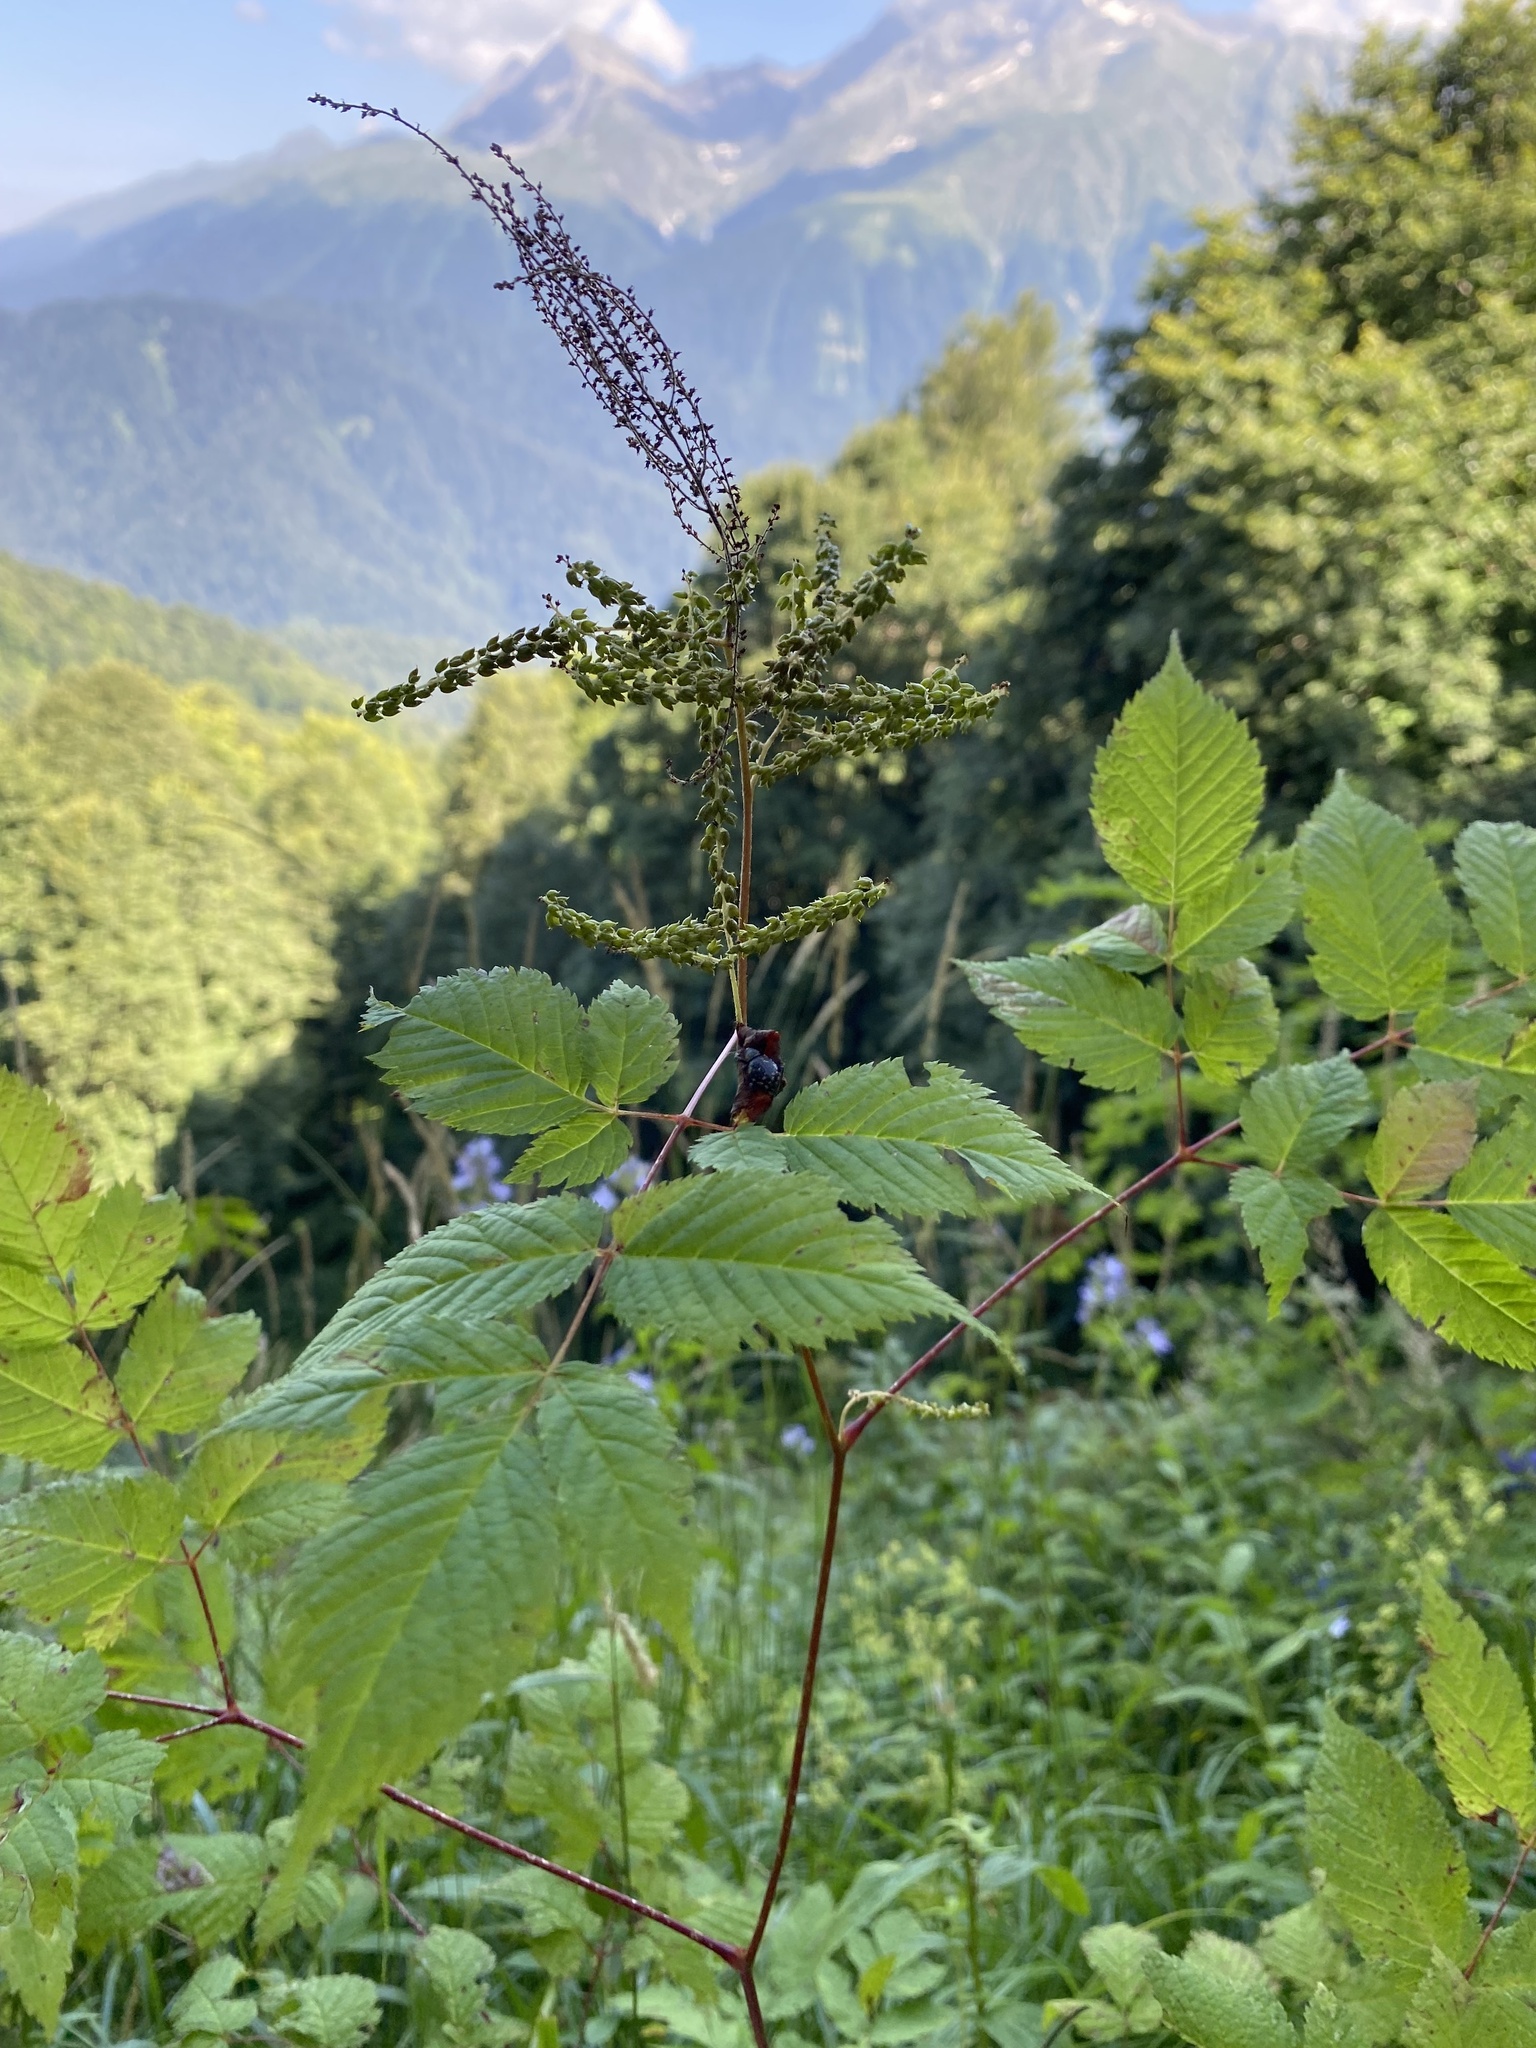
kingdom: Plantae
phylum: Tracheophyta
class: Magnoliopsida
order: Rosales
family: Rosaceae
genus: Aruncus
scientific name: Aruncus dioicus
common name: Buck's-beard
